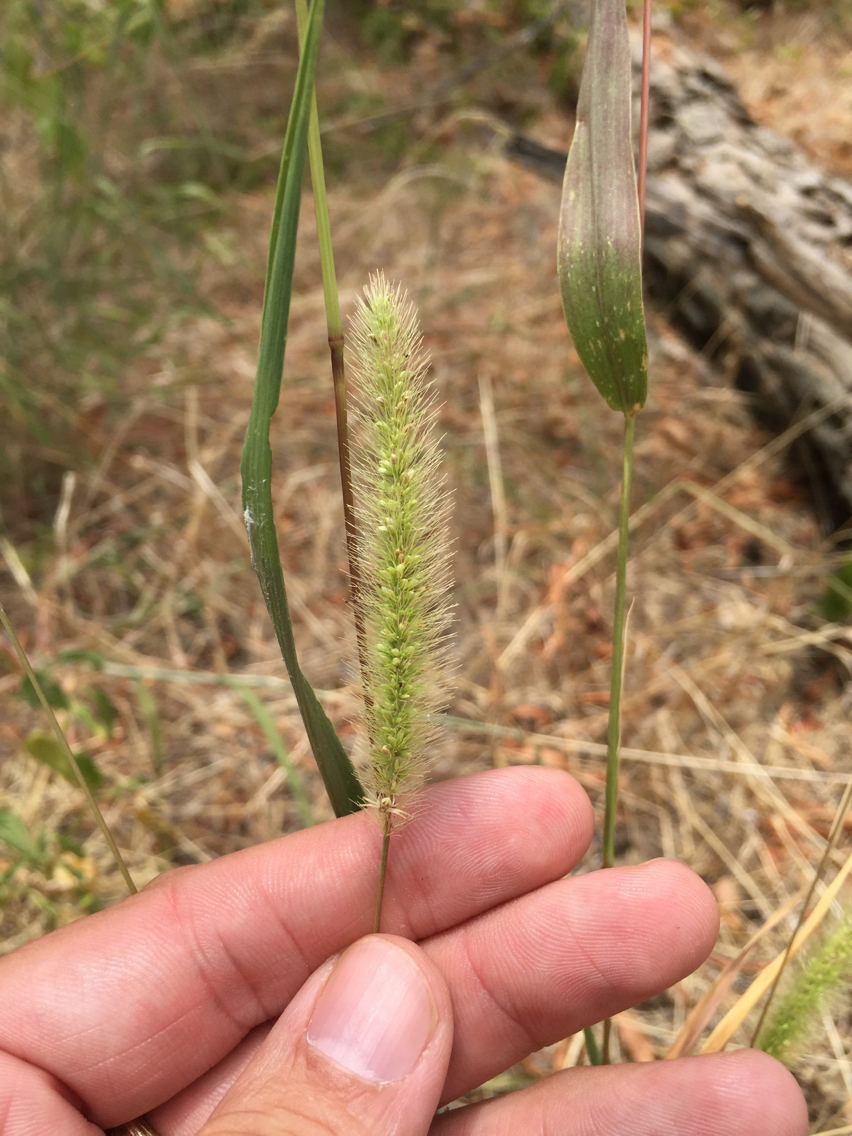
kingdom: Plantae
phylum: Tracheophyta
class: Liliopsida
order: Poales
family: Poaceae
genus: Setaria
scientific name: Setaria viridis
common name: Green bristlegrass
